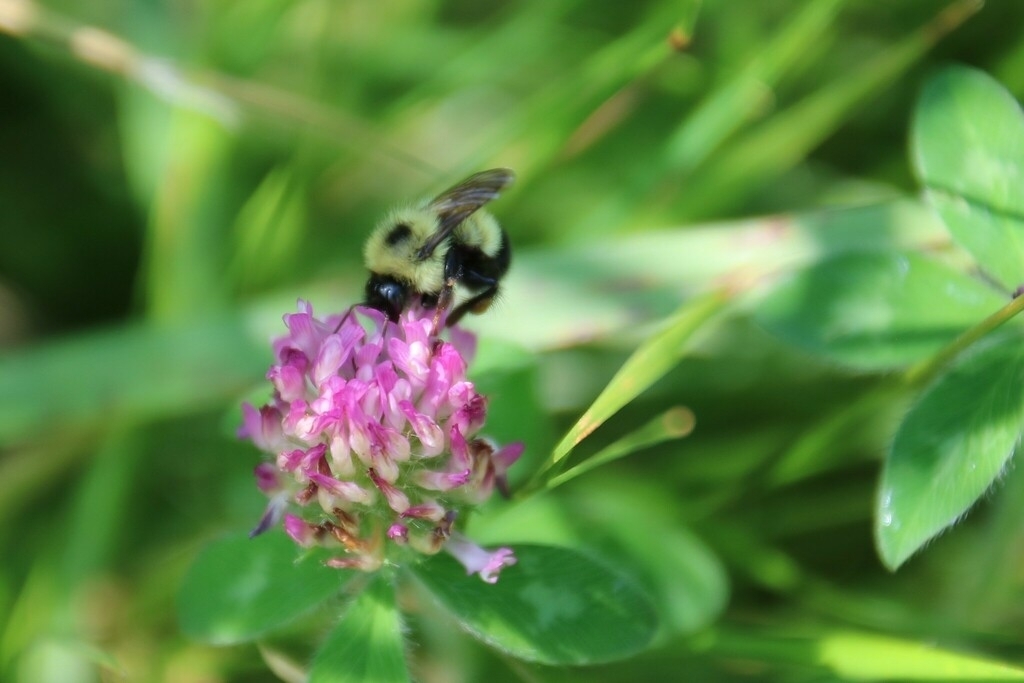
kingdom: Plantae
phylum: Tracheophyta
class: Magnoliopsida
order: Fabales
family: Fabaceae
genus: Trifolium
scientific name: Trifolium pratense
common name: Red clover
